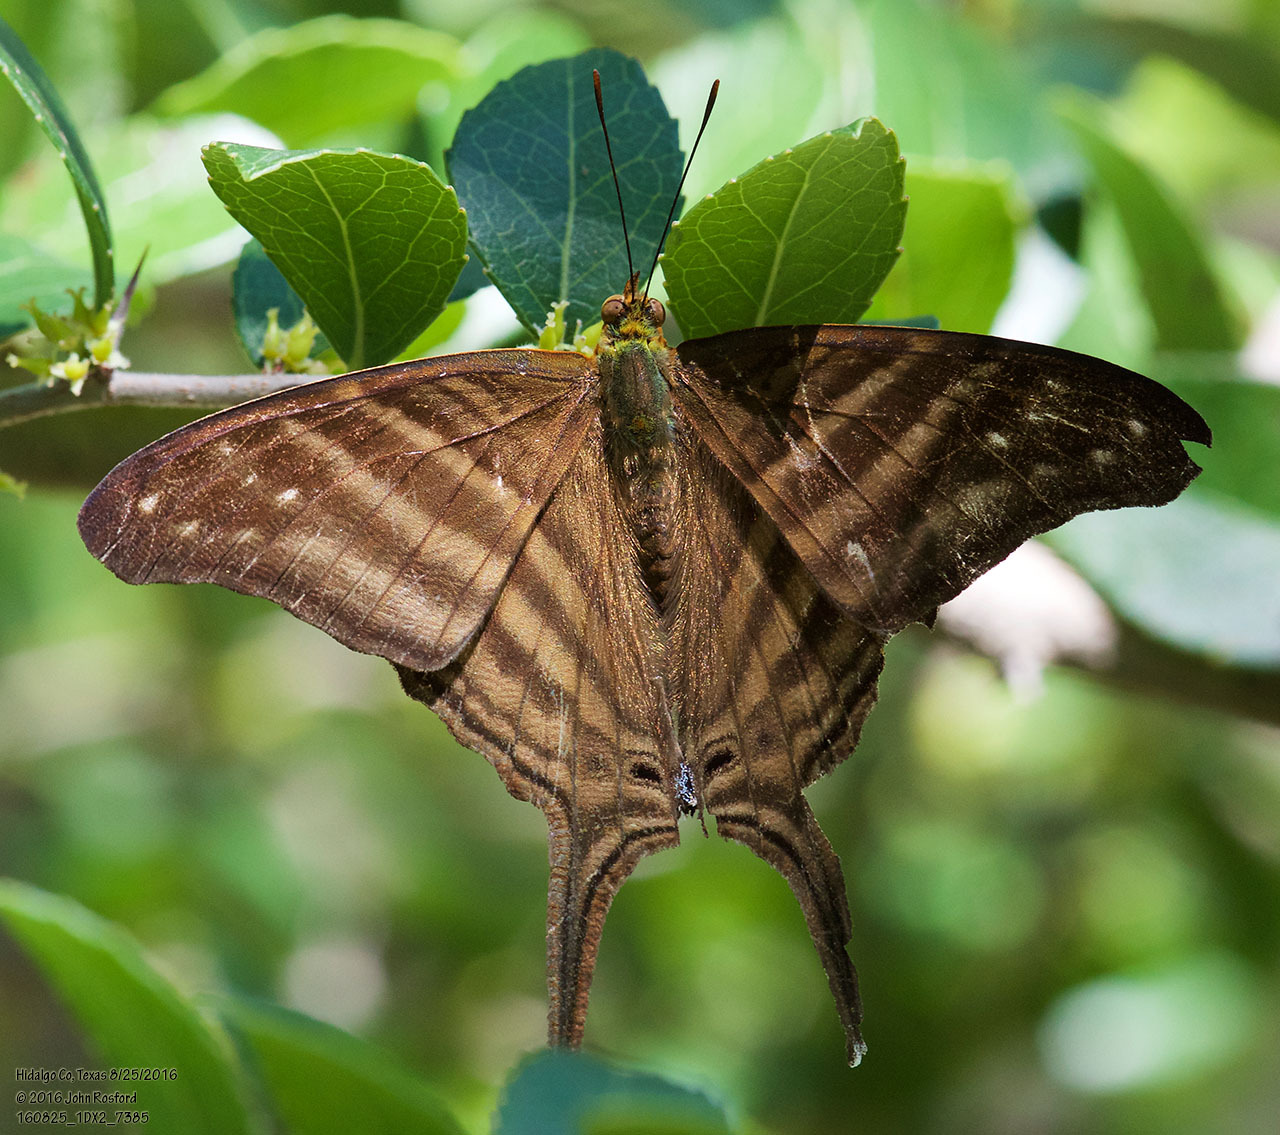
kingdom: Animalia
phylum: Arthropoda
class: Insecta
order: Lepidoptera
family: Nymphalidae
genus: Marpesia
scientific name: Marpesia chiron
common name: Many-banded daggerwing
